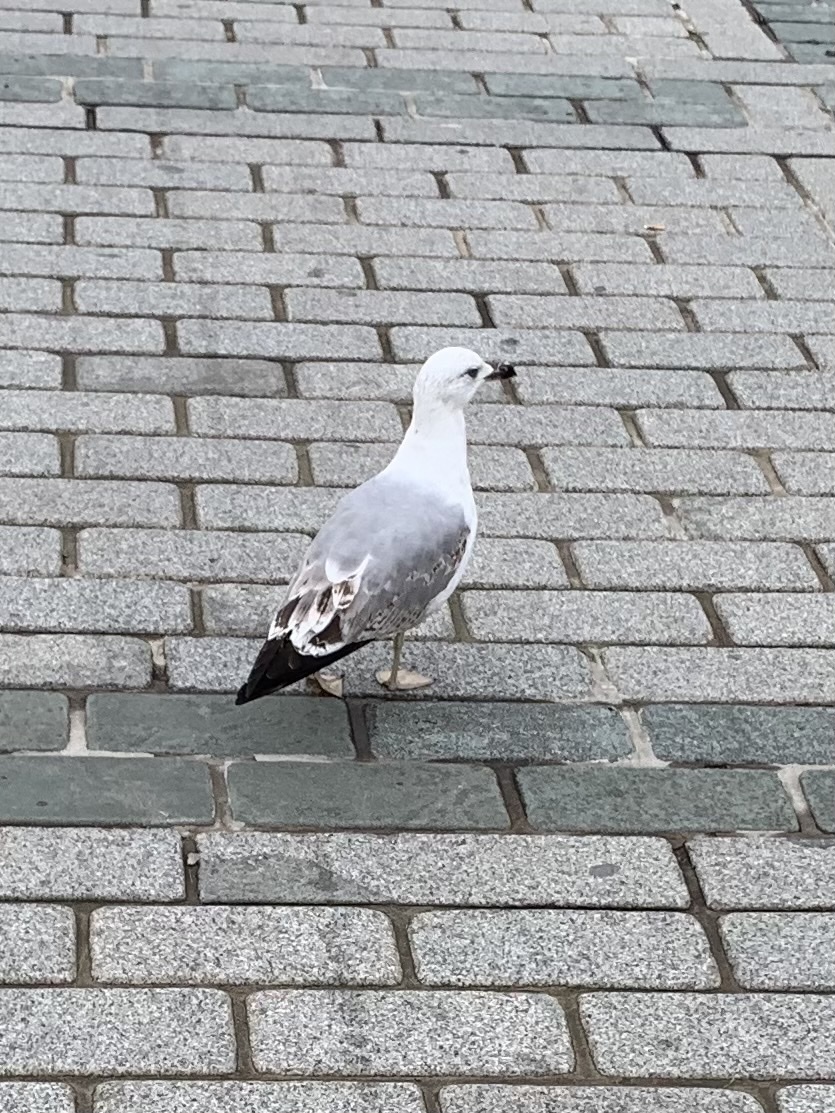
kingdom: Animalia
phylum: Chordata
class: Aves
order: Charadriiformes
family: Laridae
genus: Larus
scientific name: Larus michahellis
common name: Yellow-legged gull
